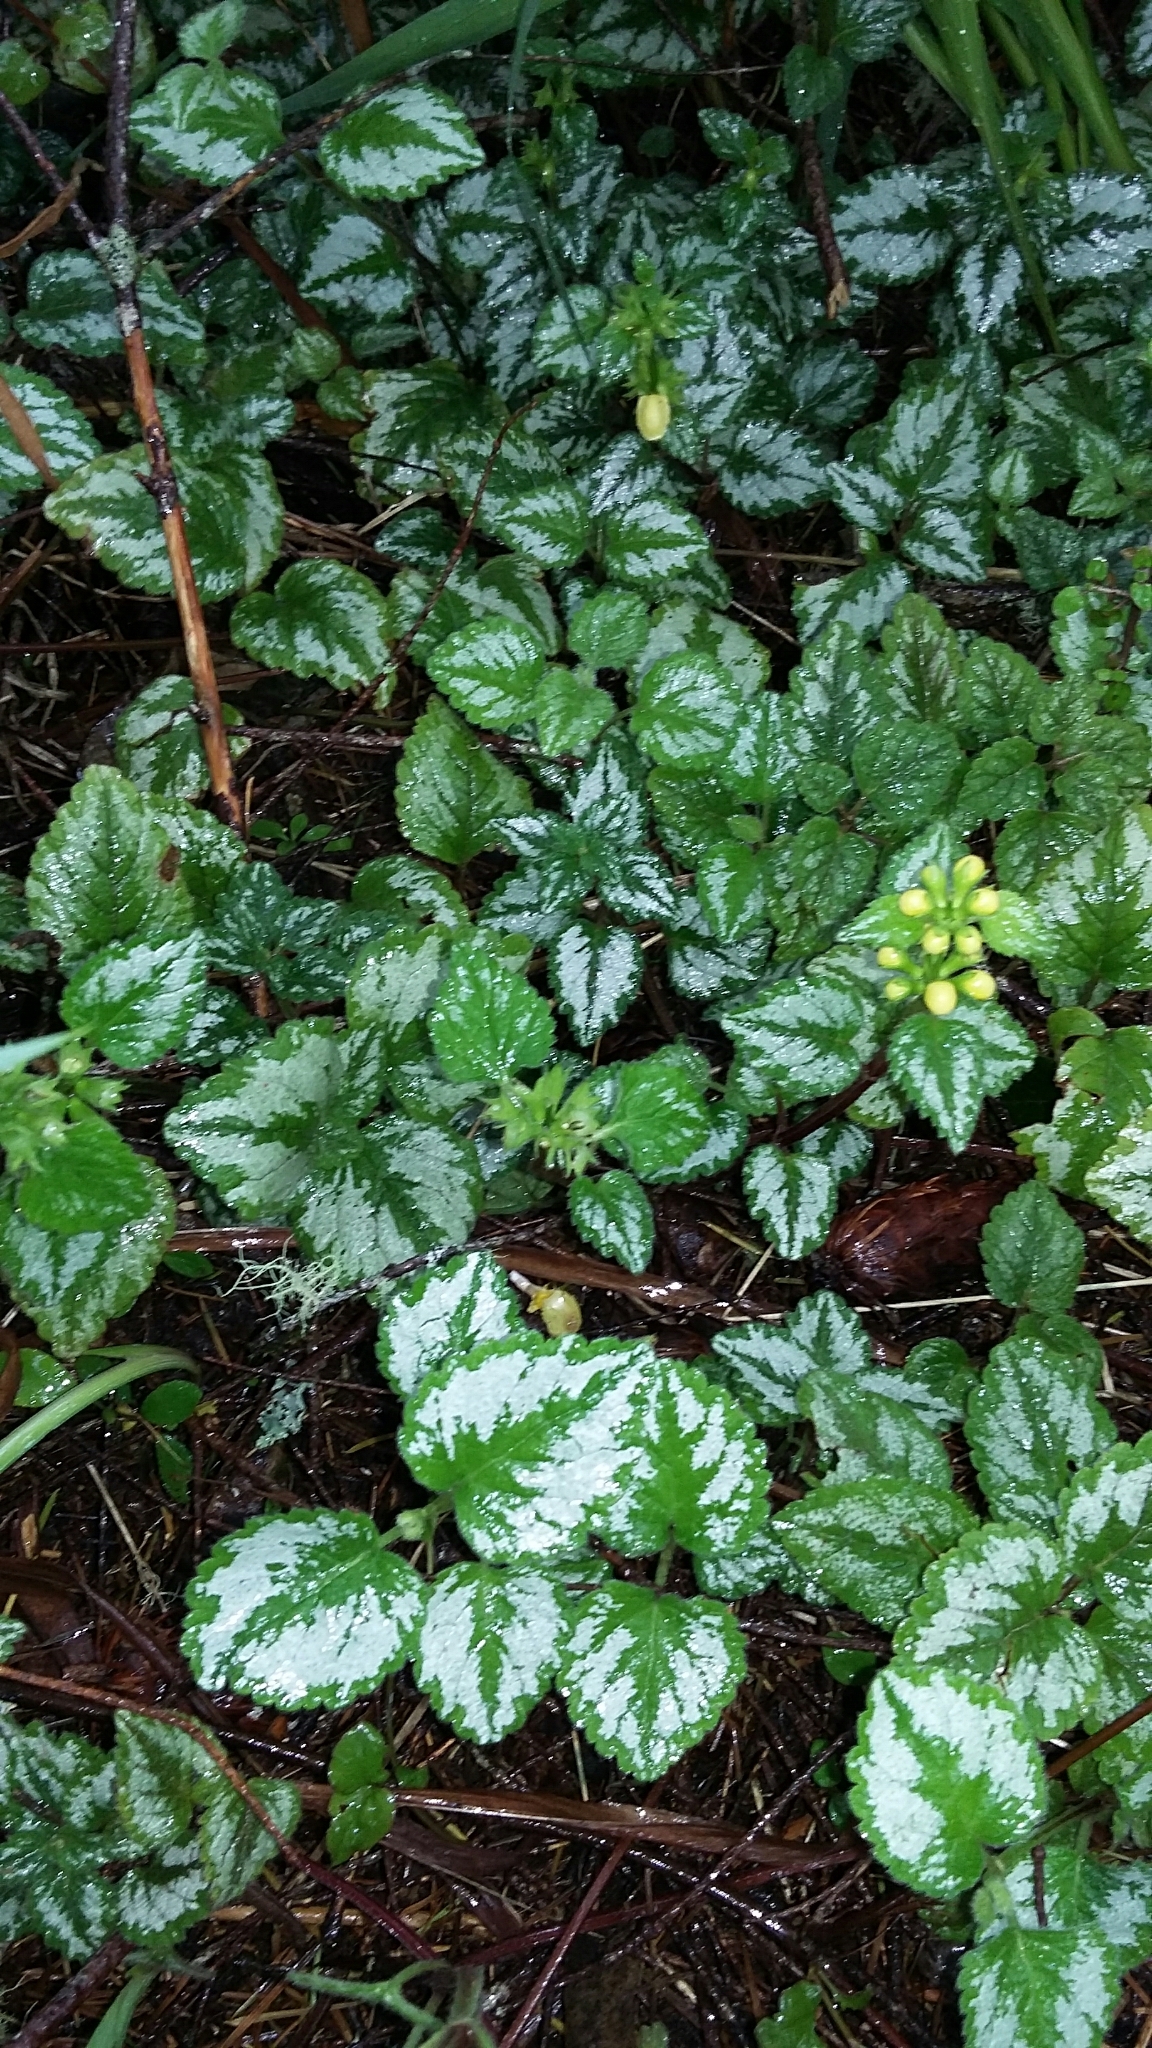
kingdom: Plantae
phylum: Tracheophyta
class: Magnoliopsida
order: Lamiales
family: Lamiaceae
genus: Lamium
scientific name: Lamium galeobdolon
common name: Yellow archangel
